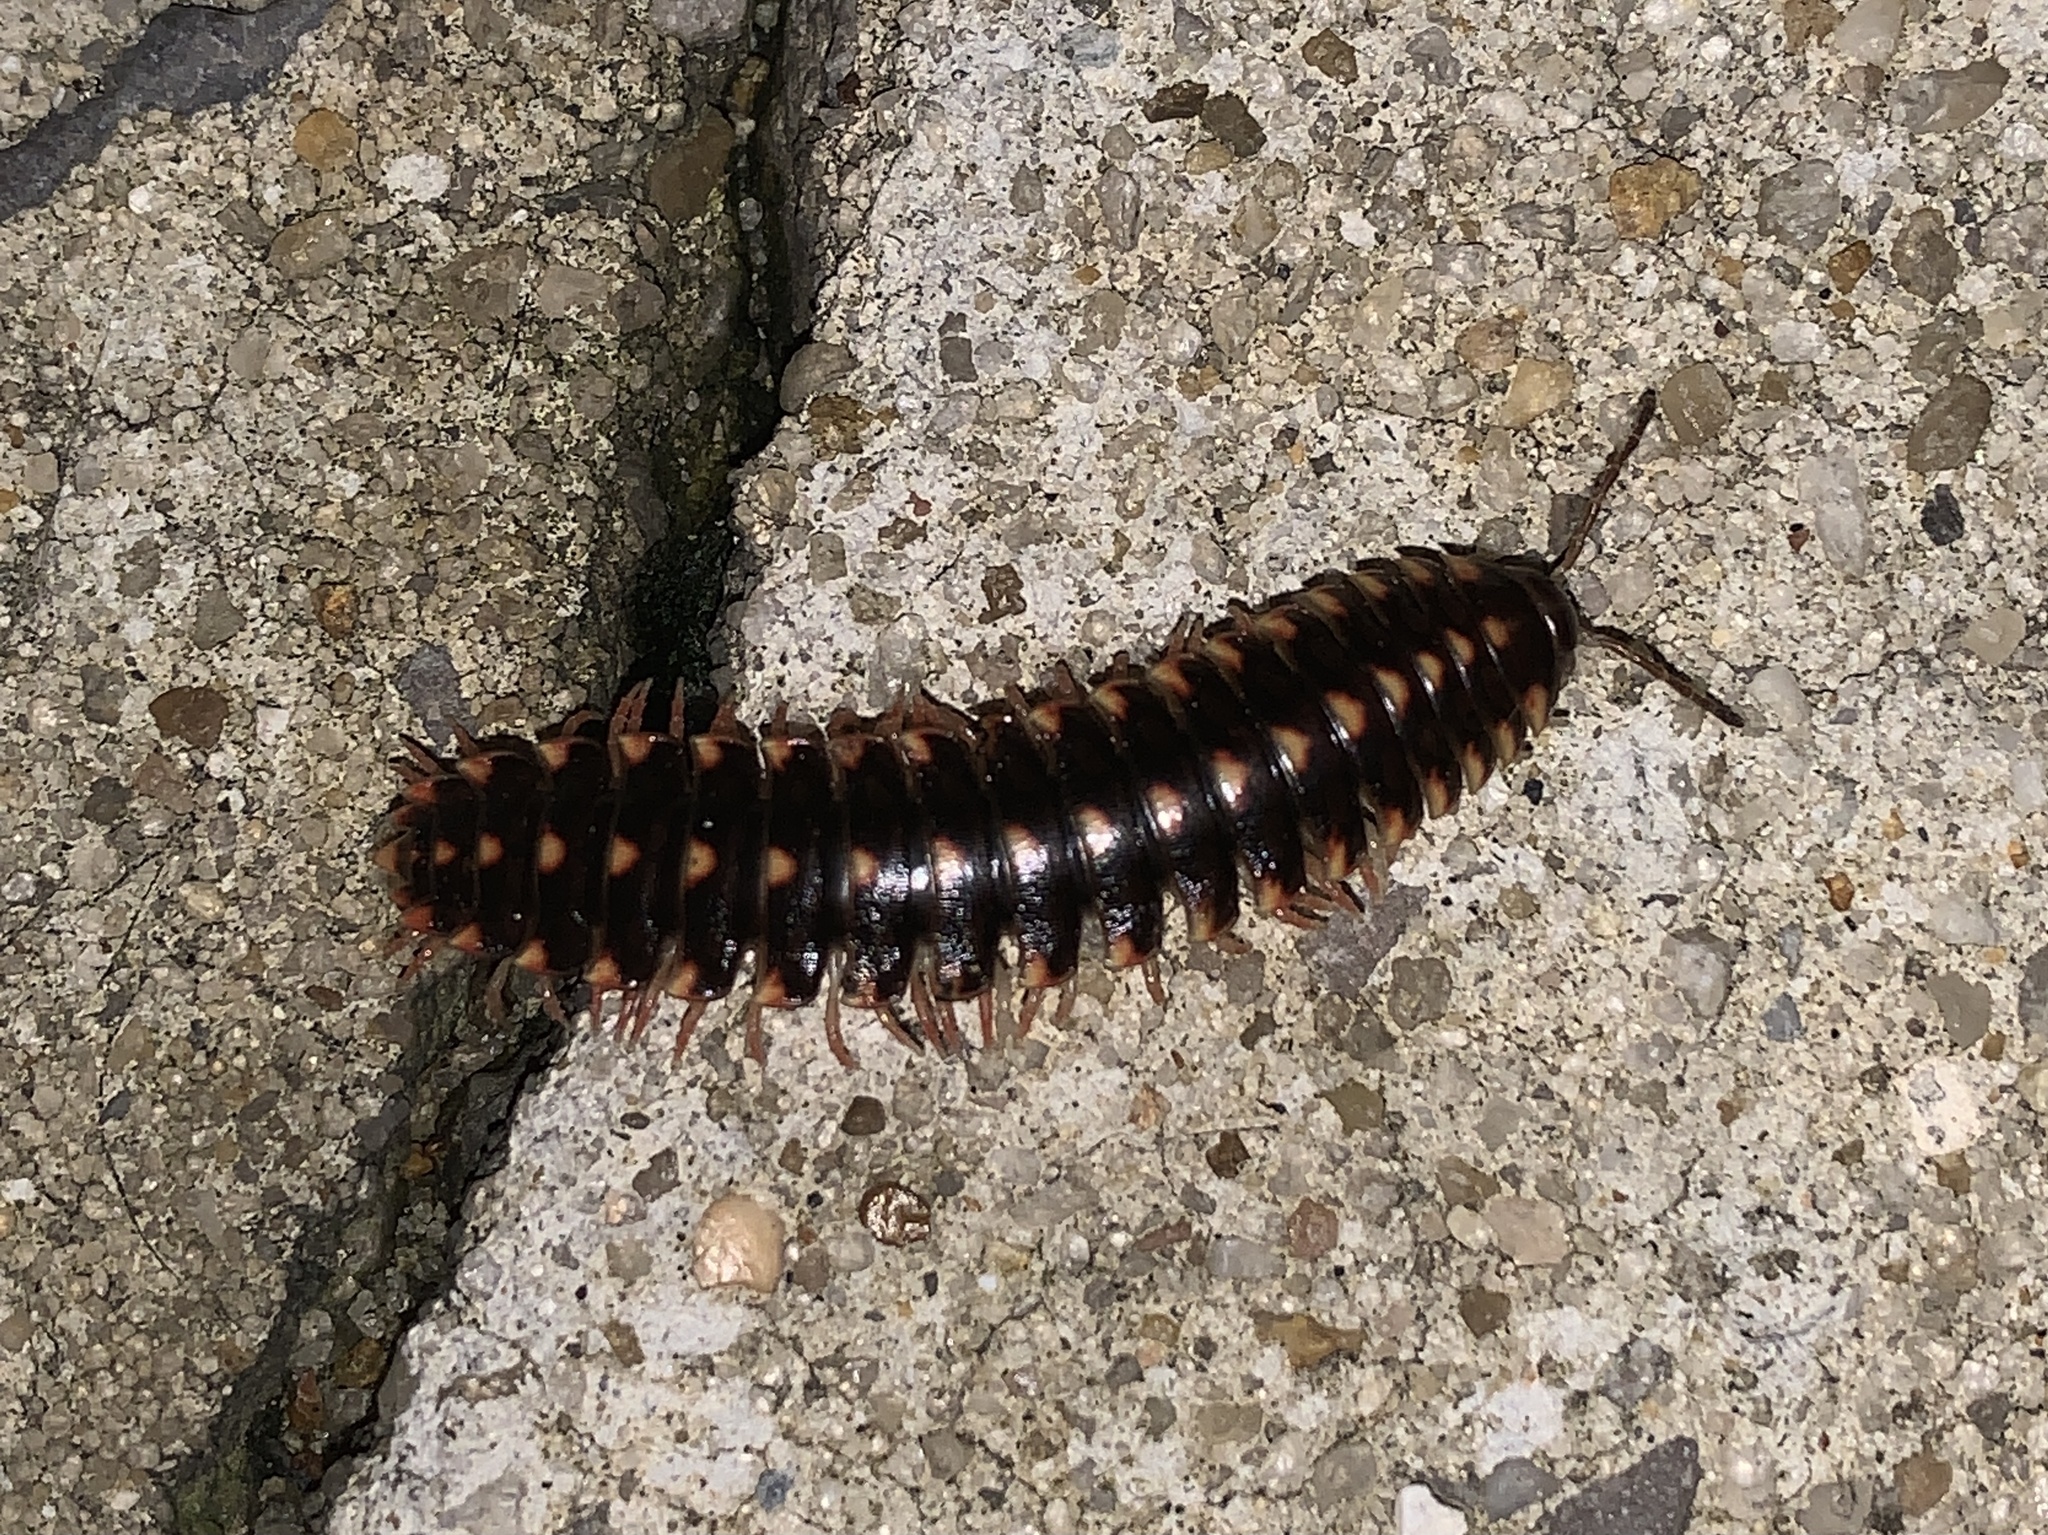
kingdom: Animalia
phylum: Arthropoda
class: Diplopoda
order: Polydesmida
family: Xystodesmidae
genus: Cherokia
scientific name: Cherokia georgiana
